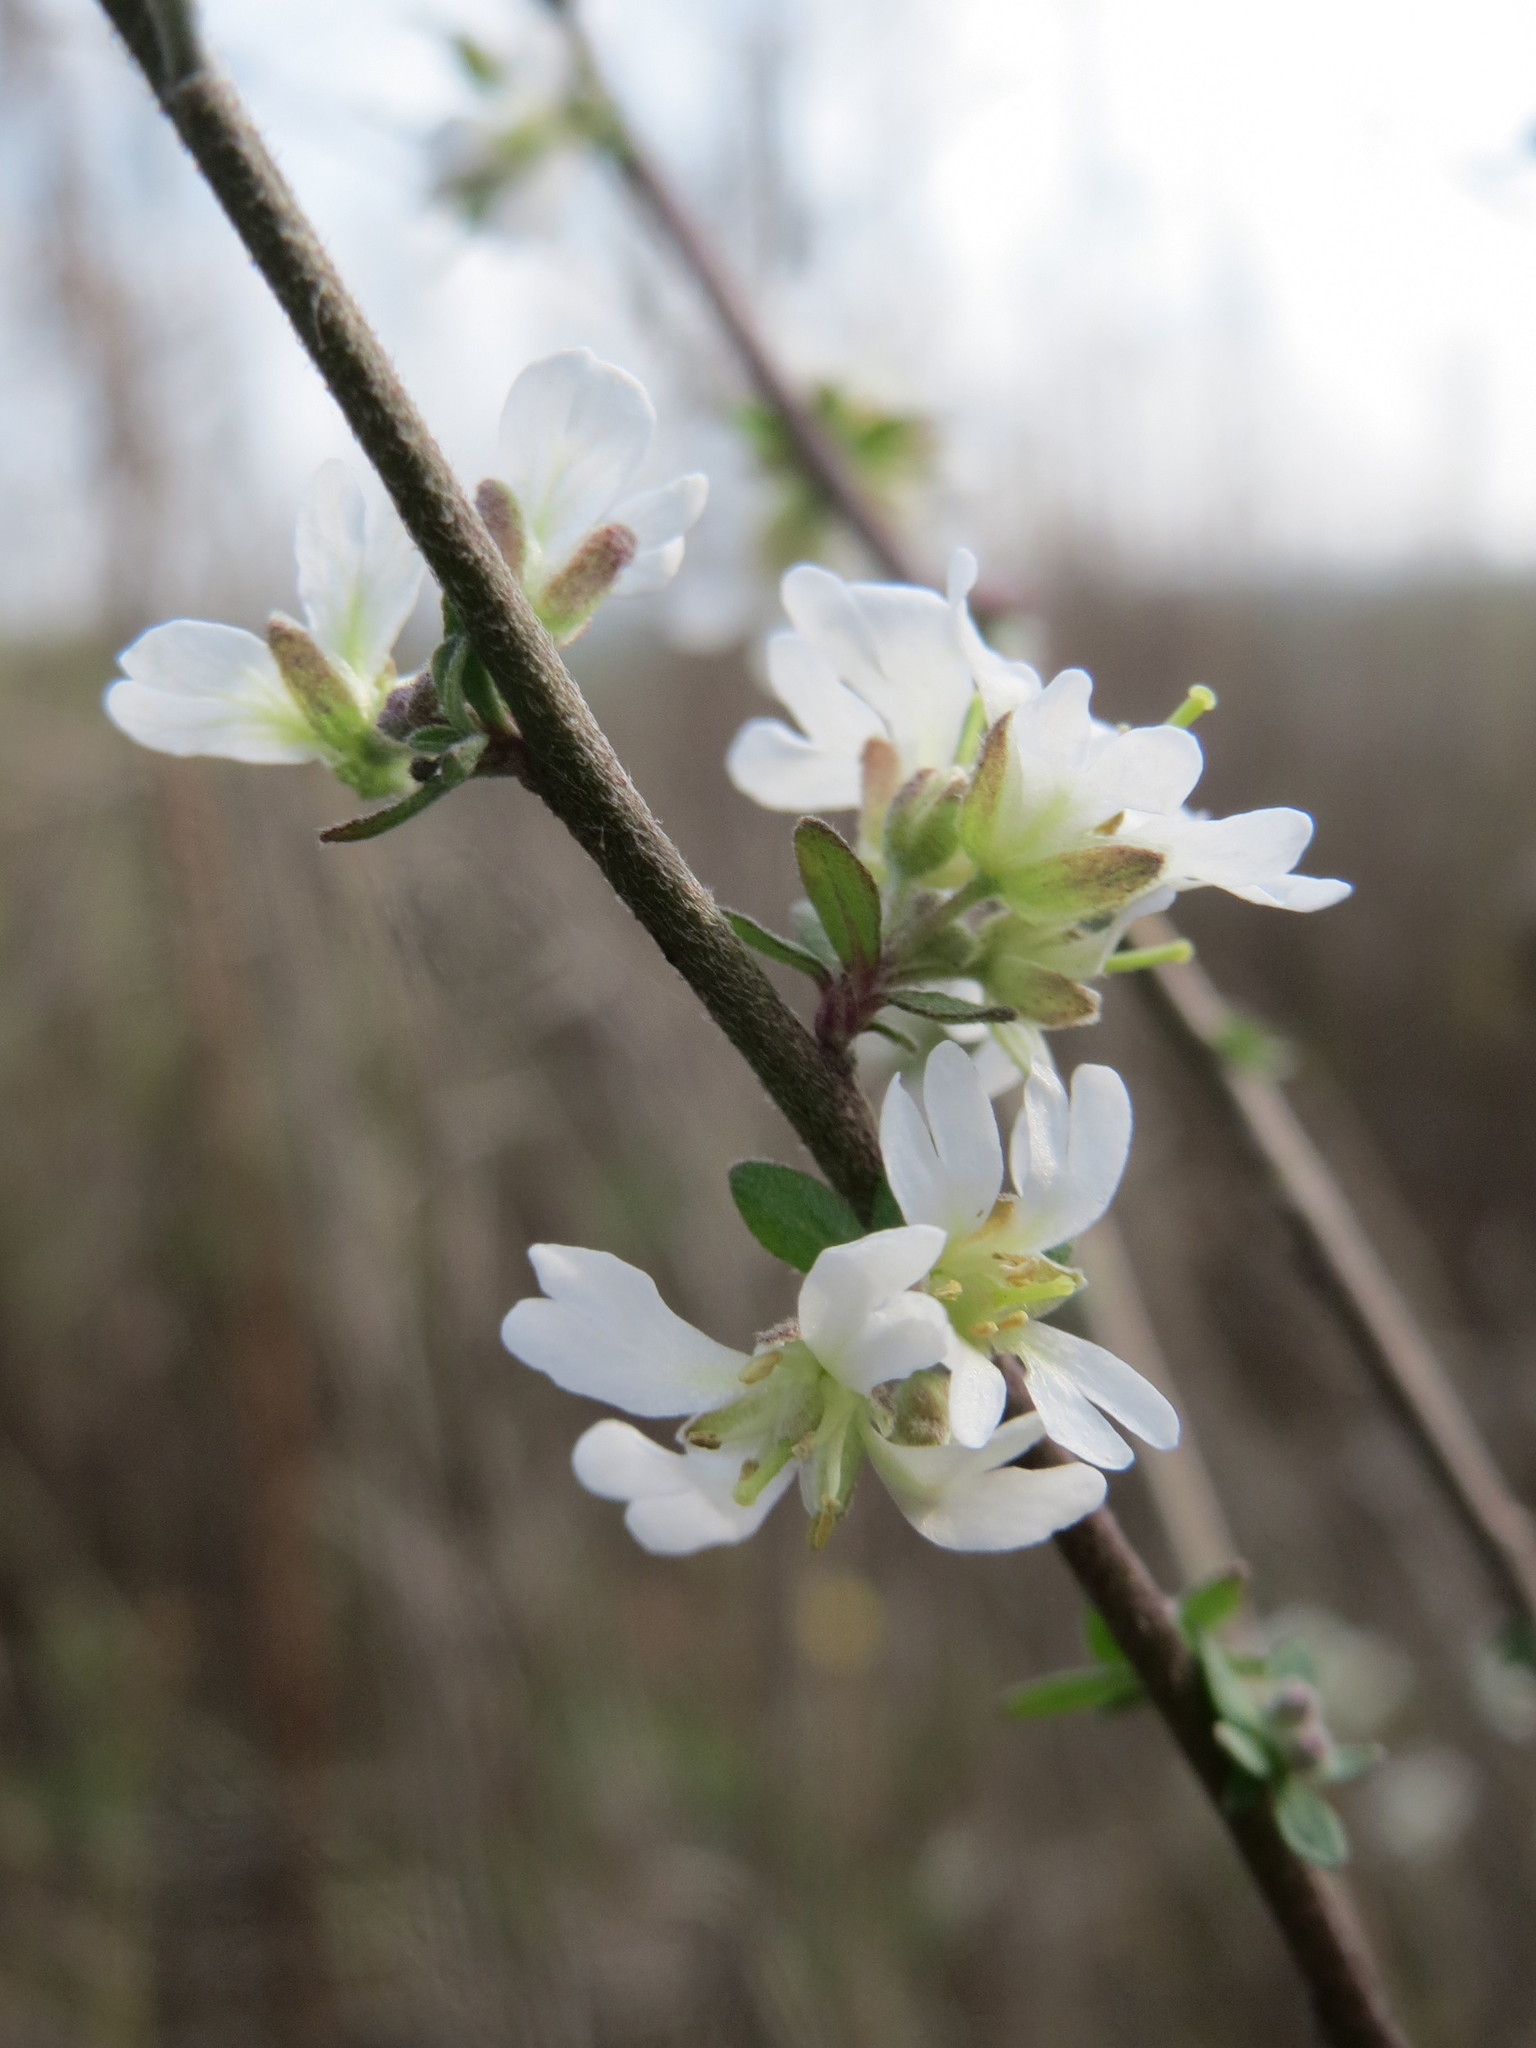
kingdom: Plantae
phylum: Tracheophyta
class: Magnoliopsida
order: Brassicales
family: Brassicaceae
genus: Berteroa
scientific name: Berteroa incana
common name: Hoary alison
